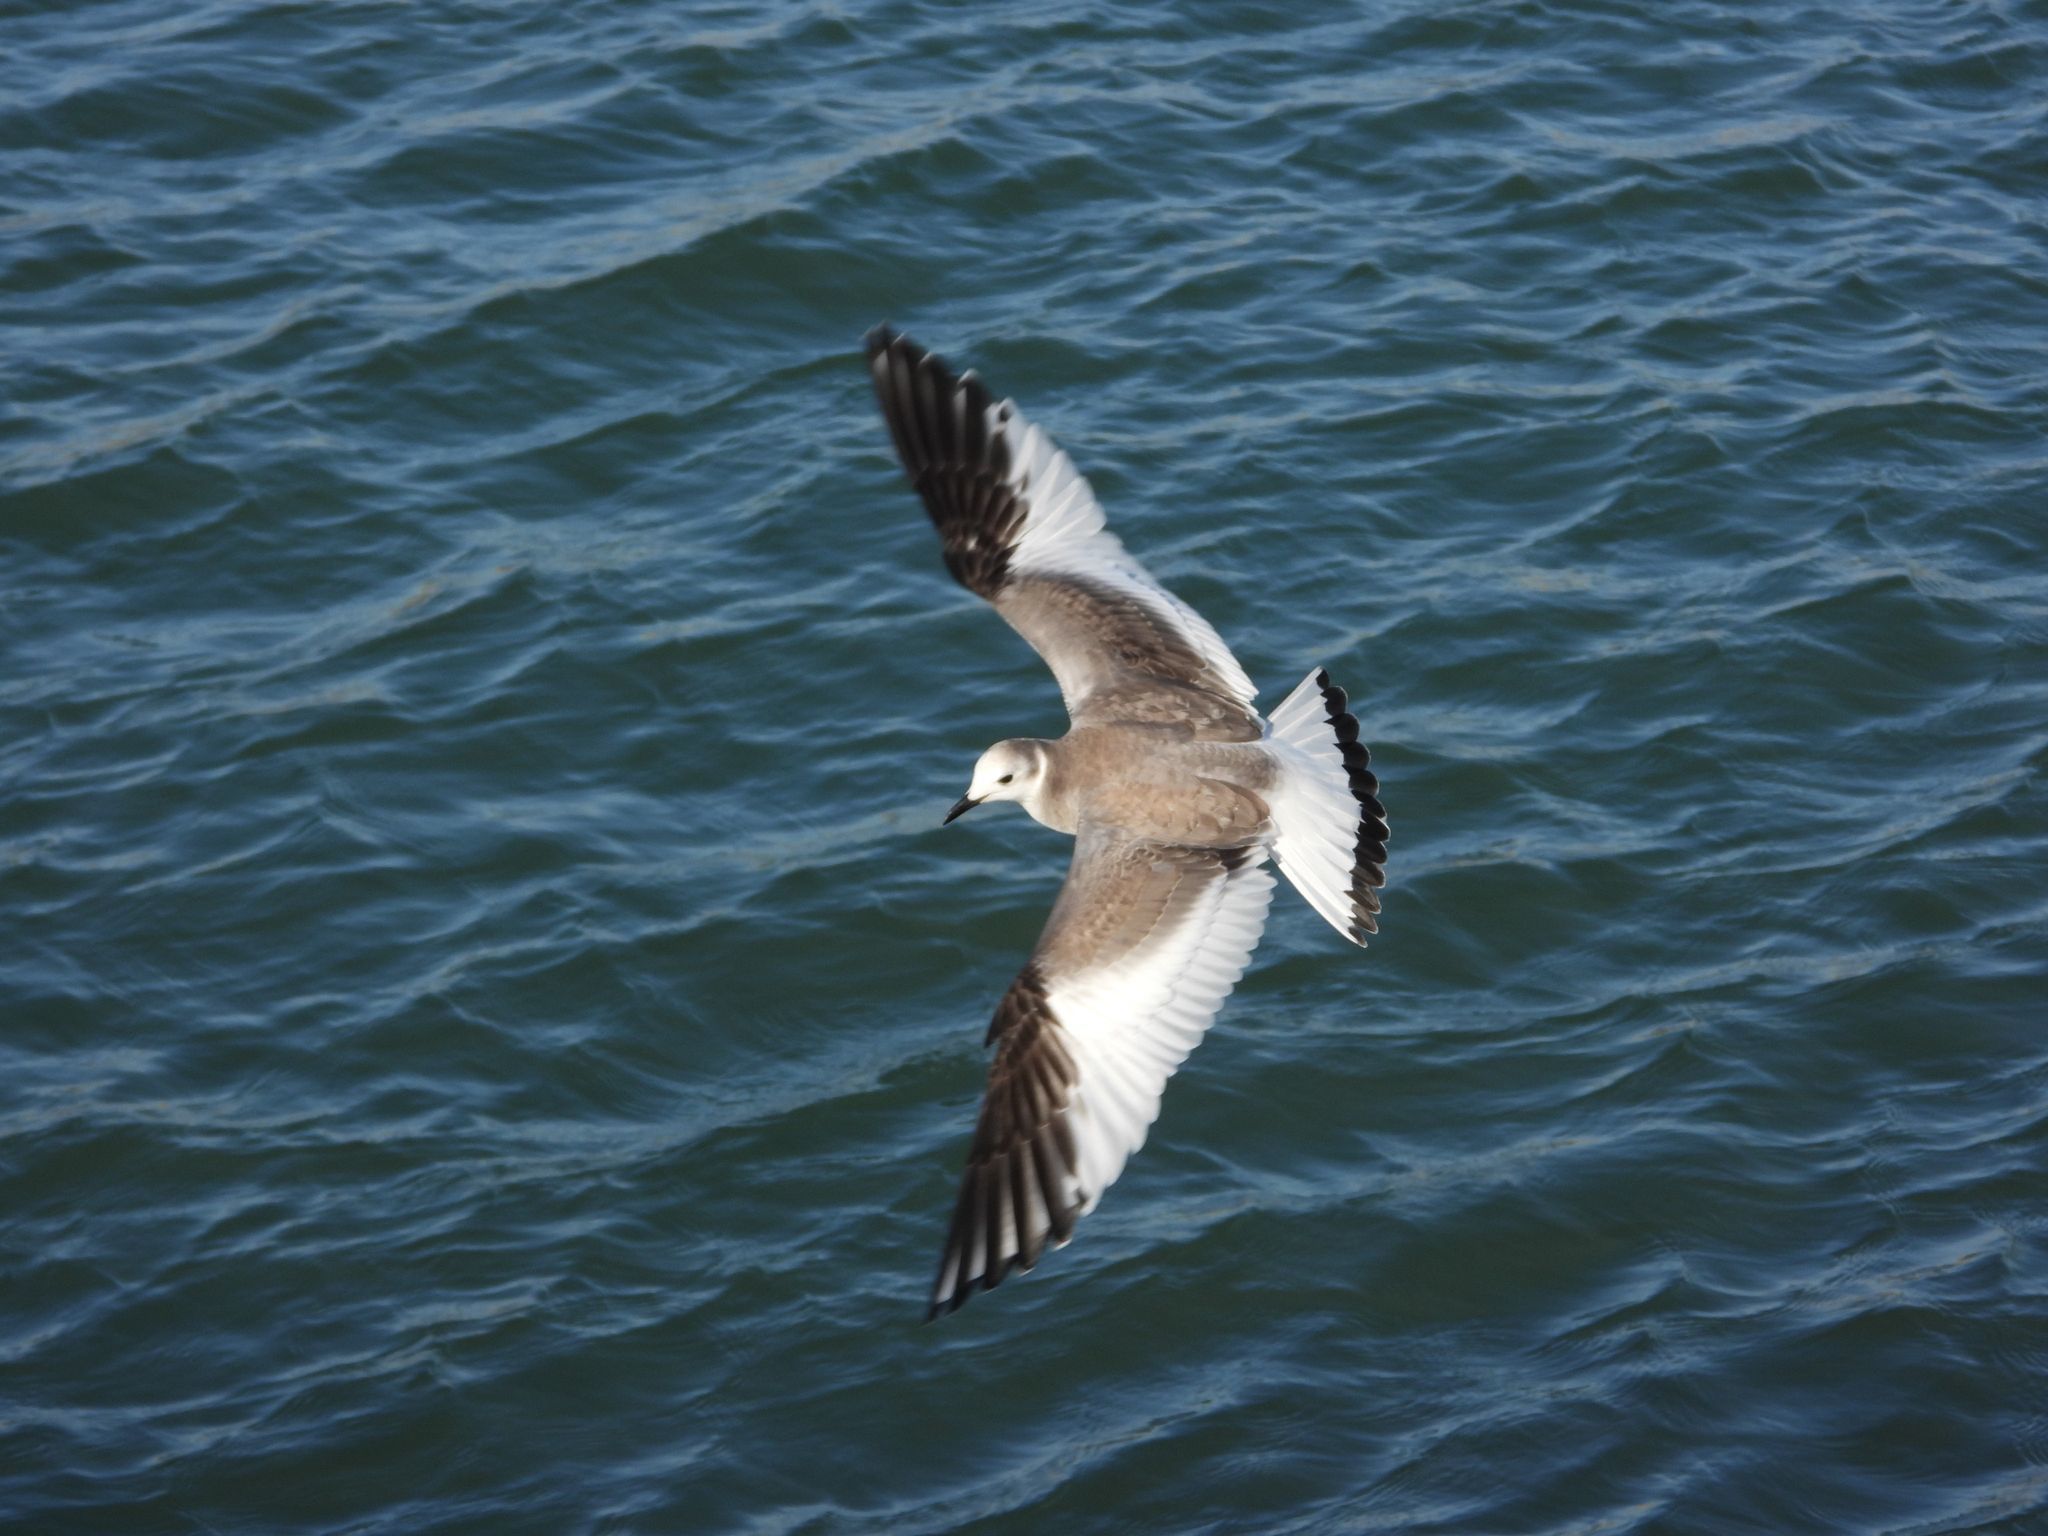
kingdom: Animalia
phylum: Chordata
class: Aves
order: Charadriiformes
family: Laridae
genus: Xema
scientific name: Xema sabini
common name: Sabine's gull
